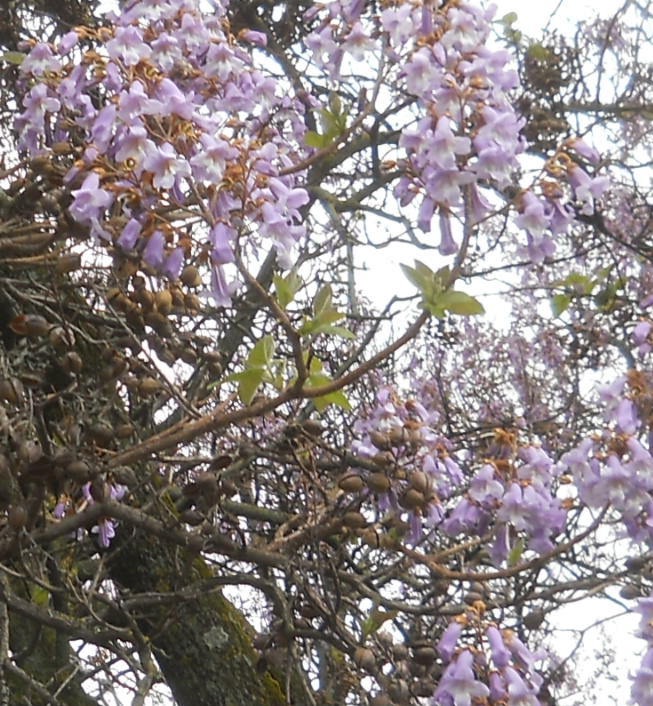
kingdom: Plantae
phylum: Tracheophyta
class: Magnoliopsida
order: Lamiales
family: Paulowniaceae
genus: Paulownia
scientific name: Paulownia tomentosa
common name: Foxglove-tree
